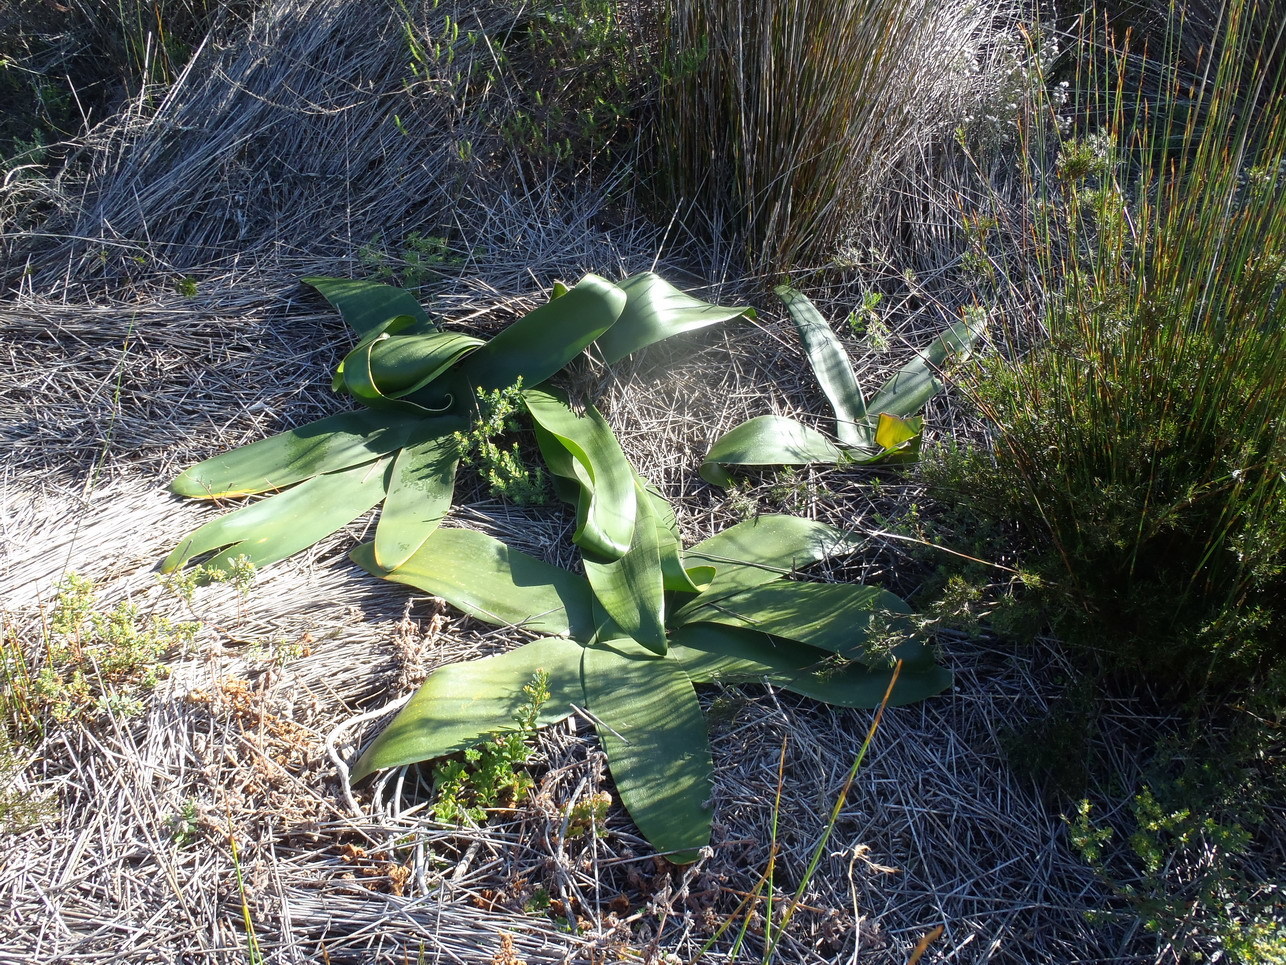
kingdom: Plantae
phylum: Tracheophyta
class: Liliopsida
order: Asparagales
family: Amaryllidaceae
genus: Brunsvigia
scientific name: Brunsvigia orientalis
